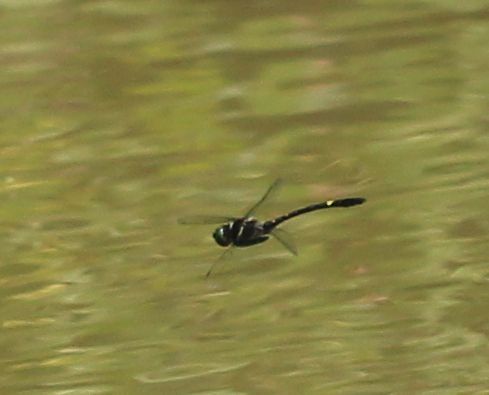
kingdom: Animalia
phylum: Arthropoda
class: Insecta
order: Odonata
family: Macromiidae
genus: Macromia
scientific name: Macromia illinoiensis
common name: Swift river cruiser
